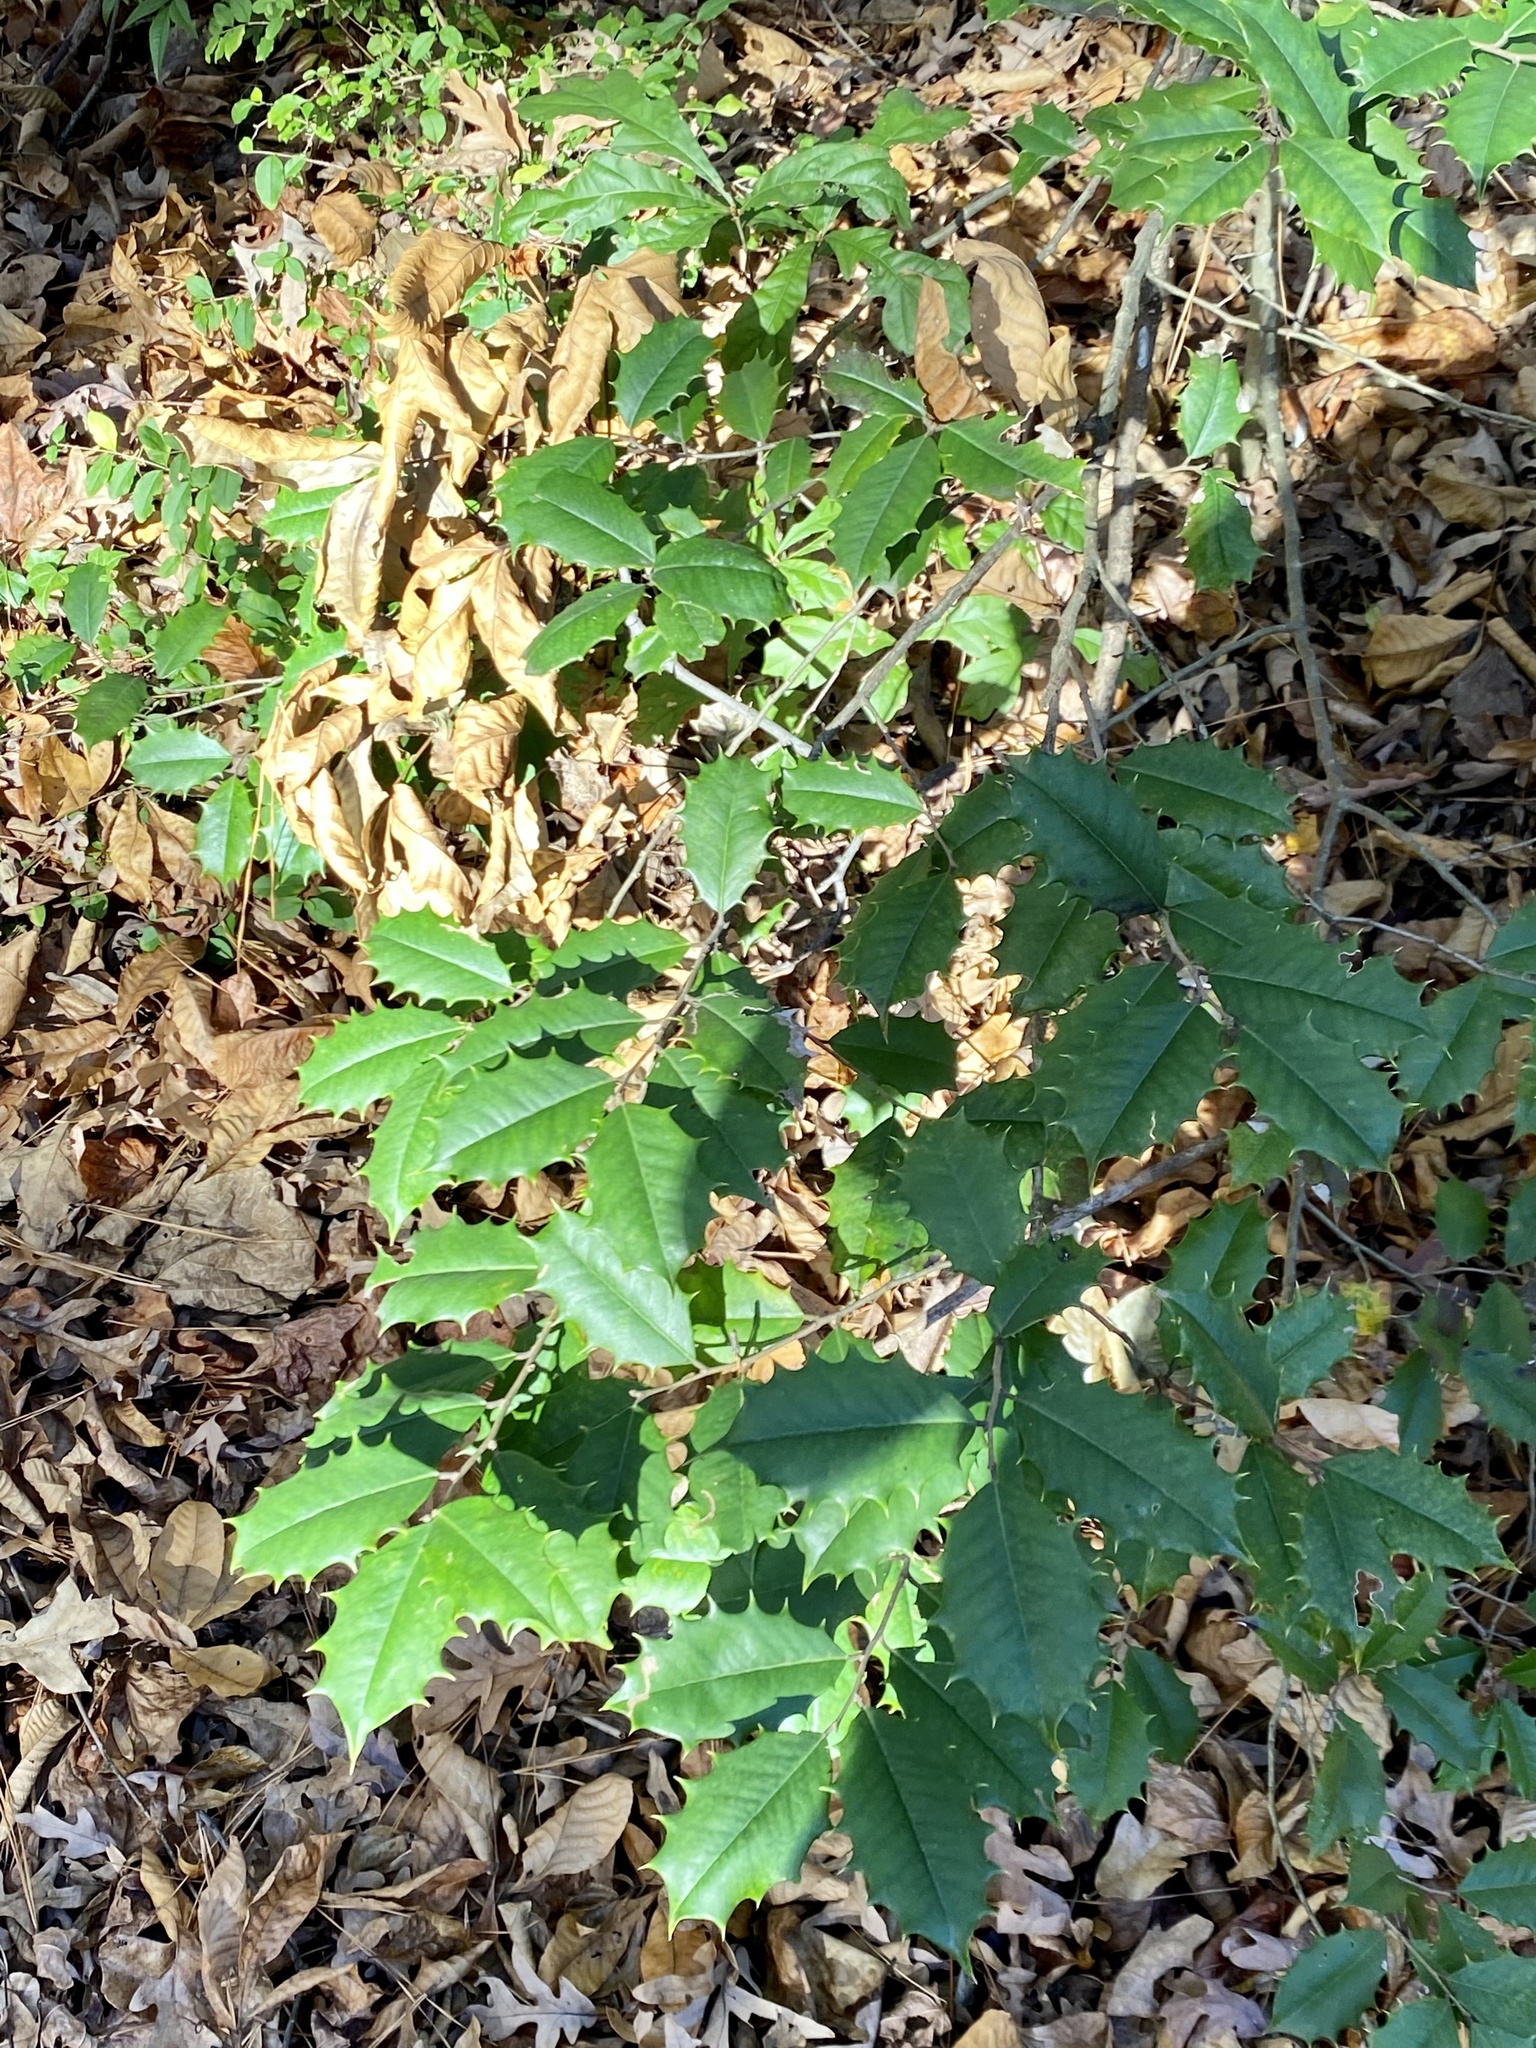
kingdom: Plantae
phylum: Tracheophyta
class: Magnoliopsida
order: Aquifoliales
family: Aquifoliaceae
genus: Ilex
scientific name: Ilex opaca
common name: American holly
